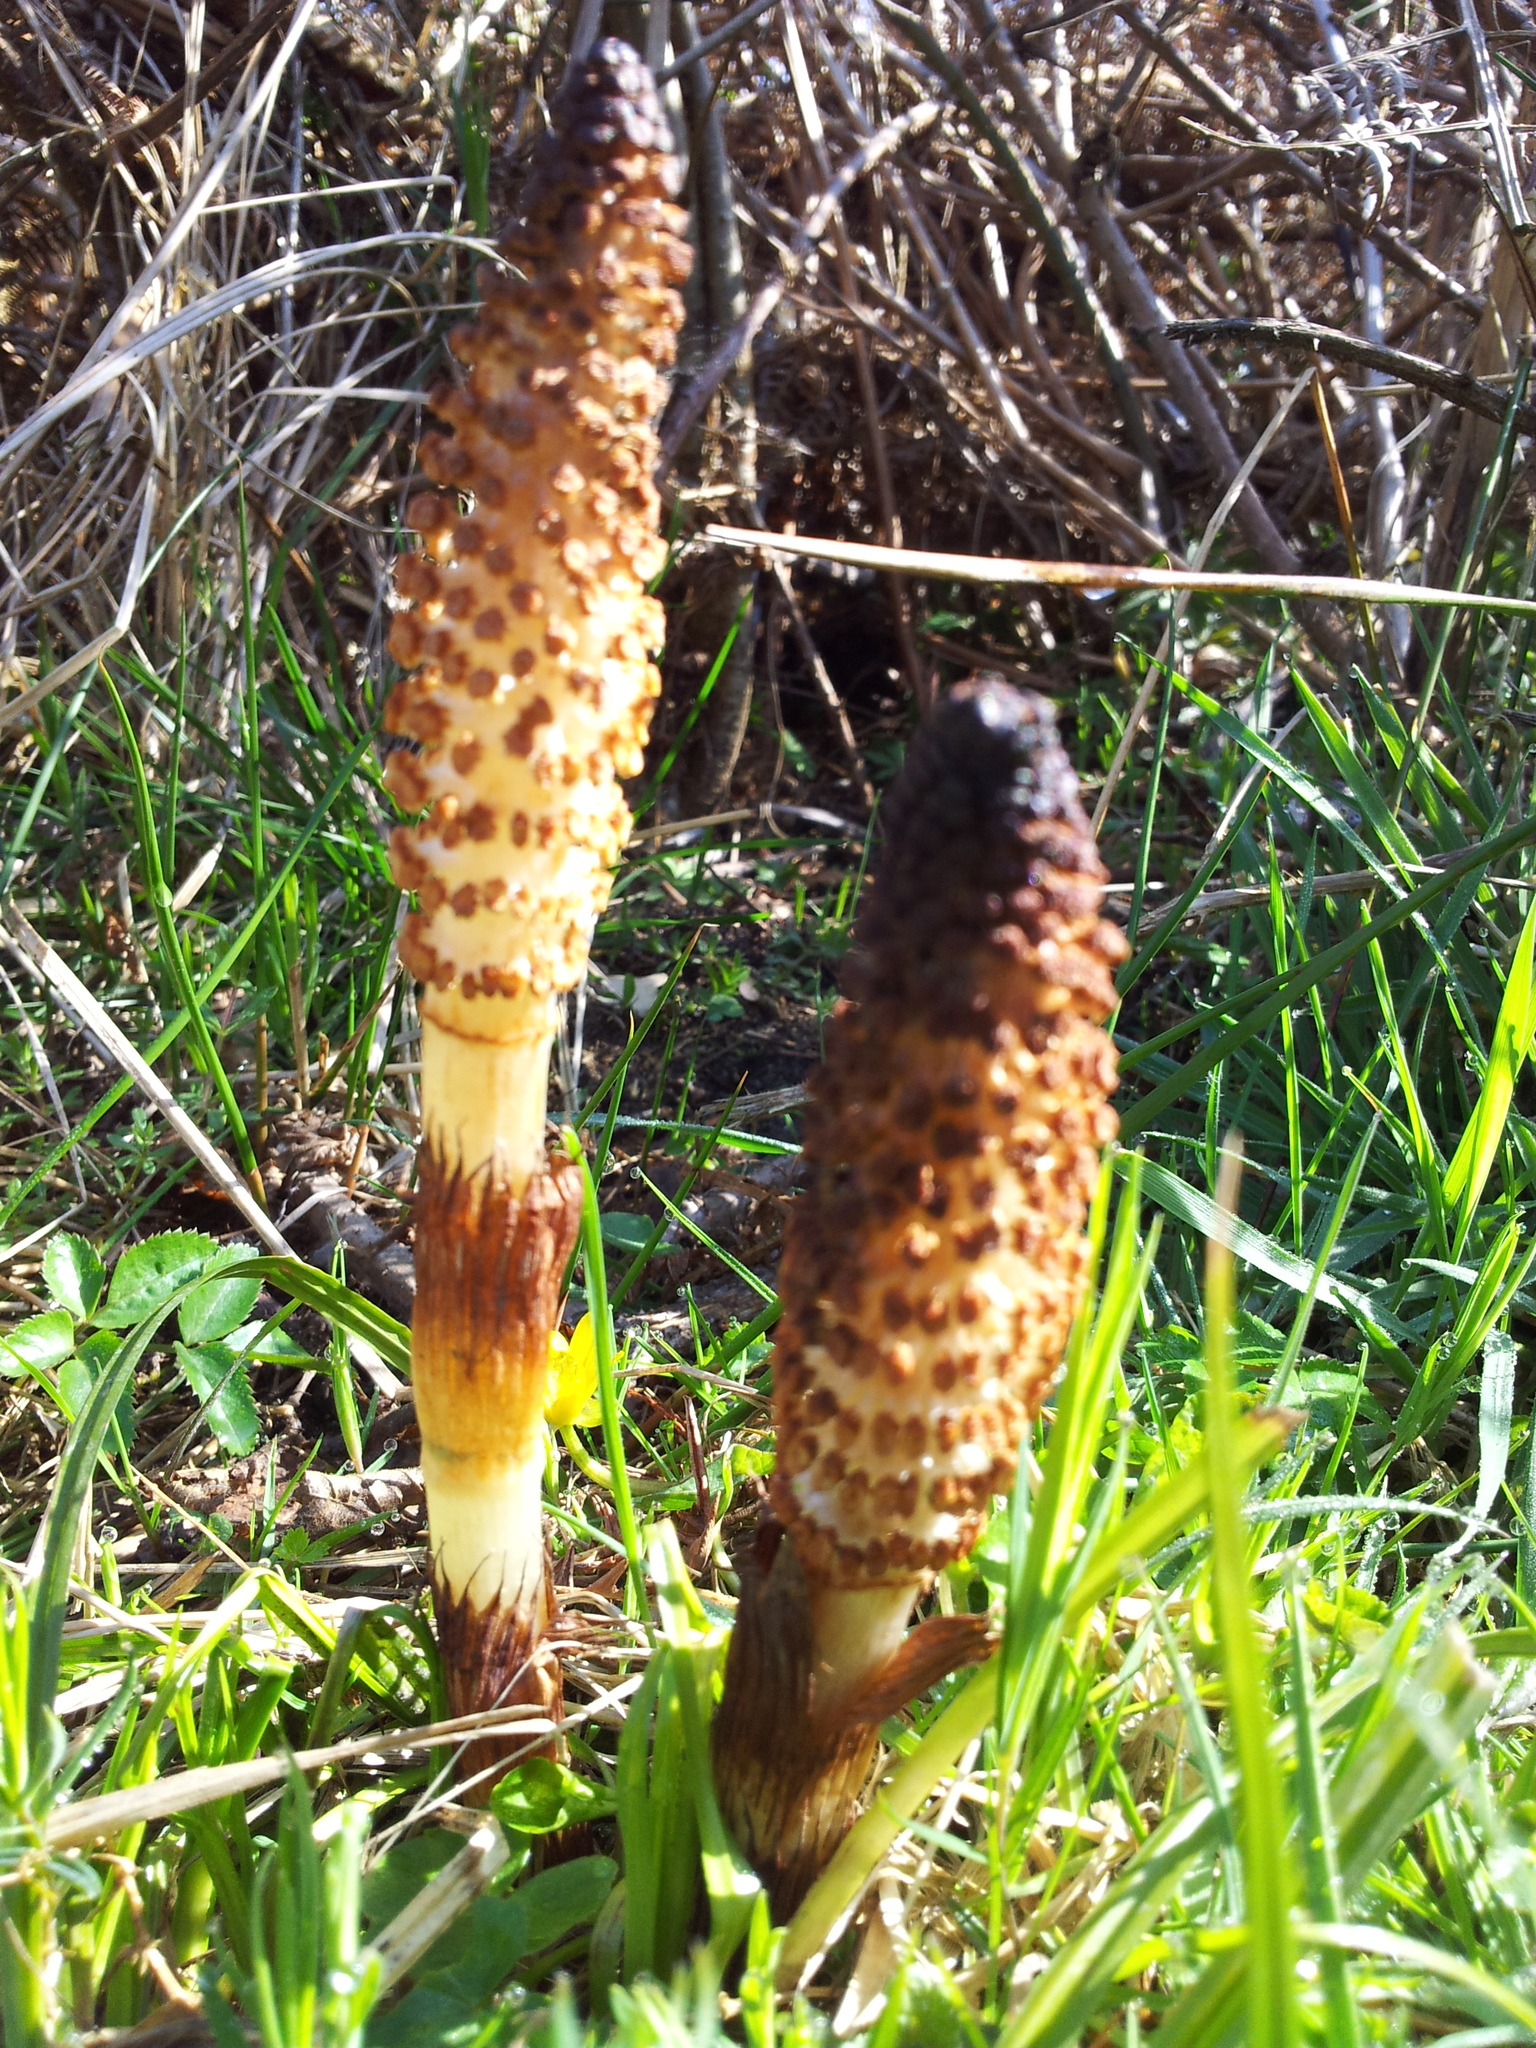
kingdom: Plantae
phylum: Tracheophyta
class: Polypodiopsida
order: Equisetales
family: Equisetaceae
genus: Equisetum
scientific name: Equisetum telmateia
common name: Great horsetail
